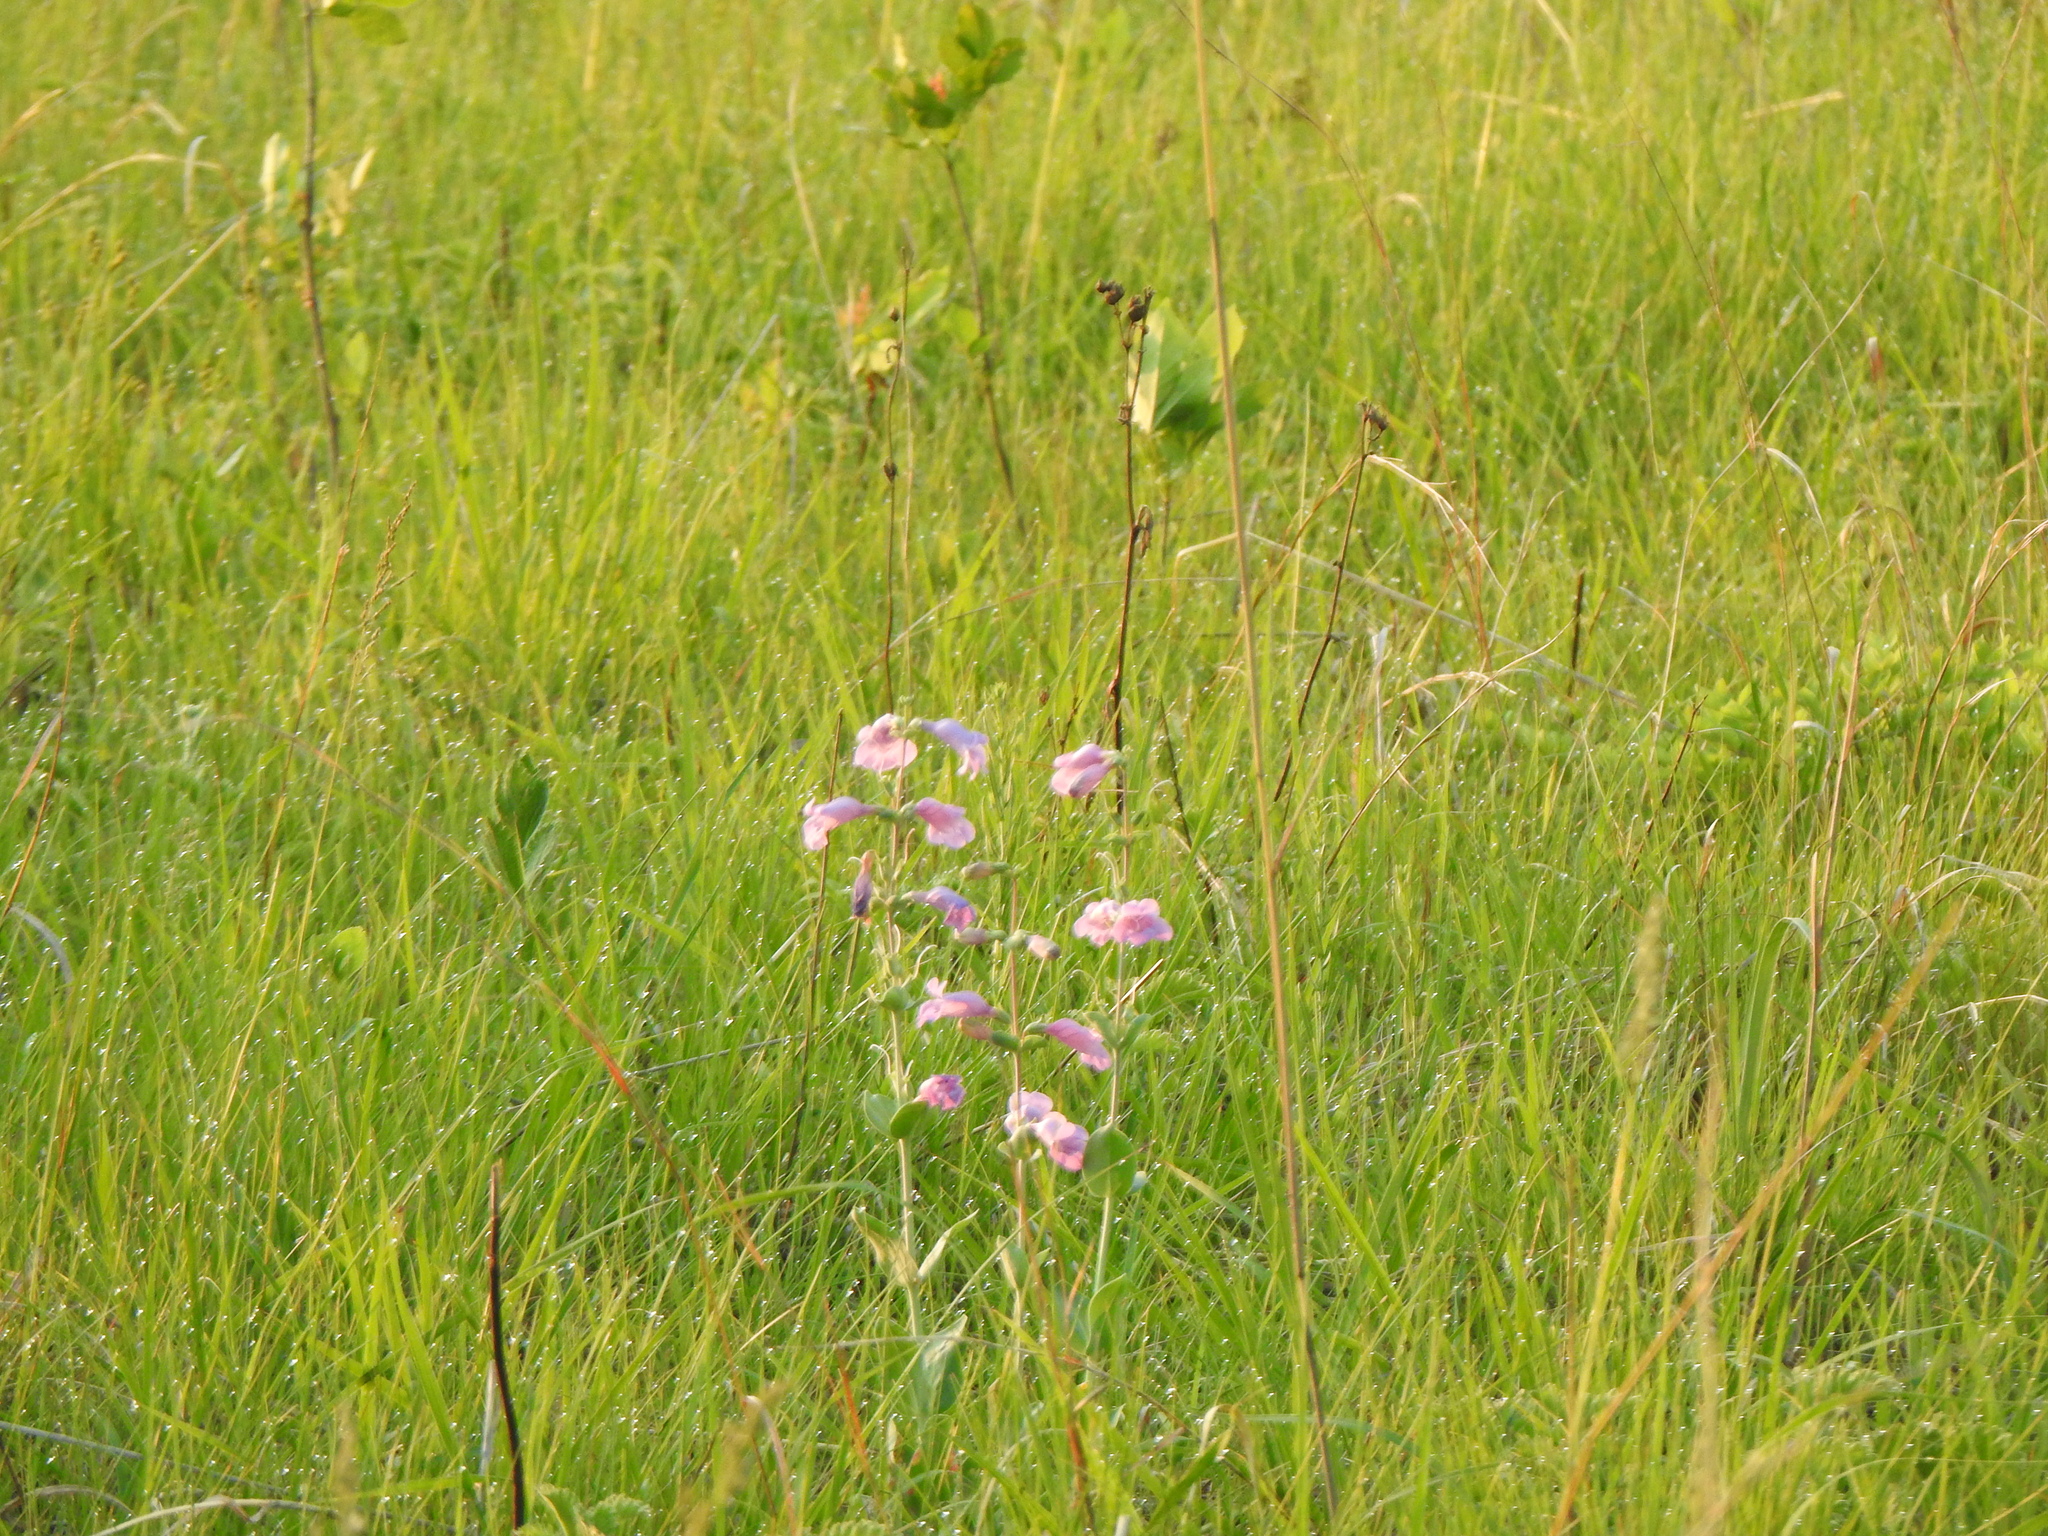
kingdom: Plantae
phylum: Tracheophyta
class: Magnoliopsida
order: Lamiales
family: Plantaginaceae
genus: Penstemon
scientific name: Penstemon
